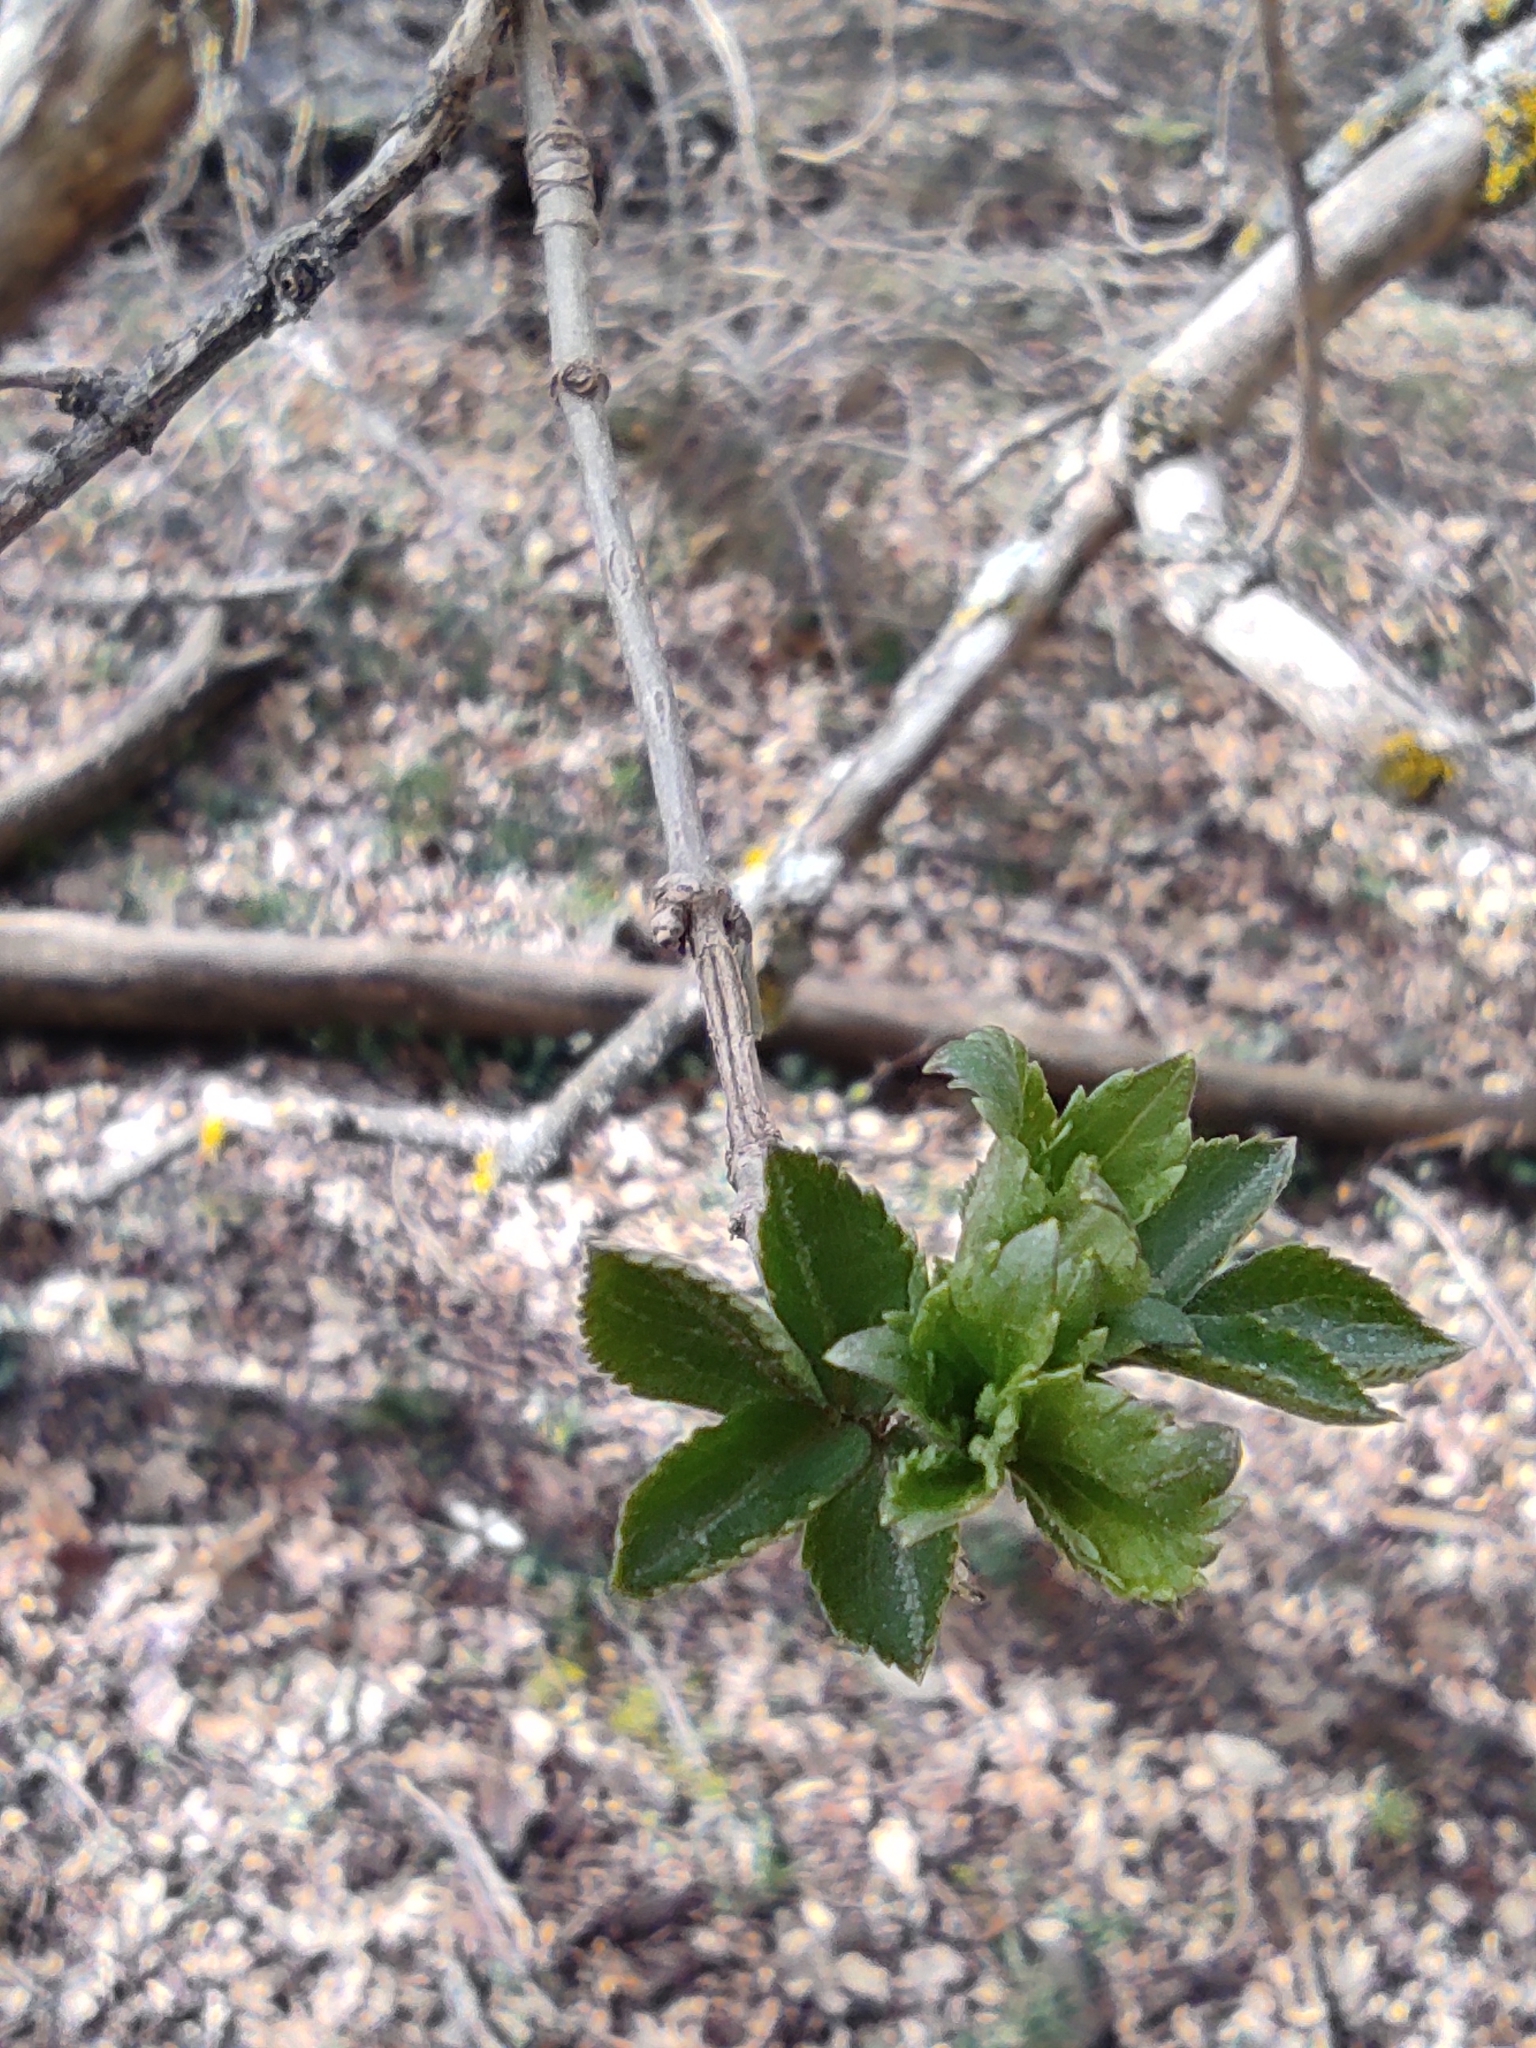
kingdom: Plantae
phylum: Tracheophyta
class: Magnoliopsida
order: Dipsacales
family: Viburnaceae
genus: Sambucus
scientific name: Sambucus nigra
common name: Elder
